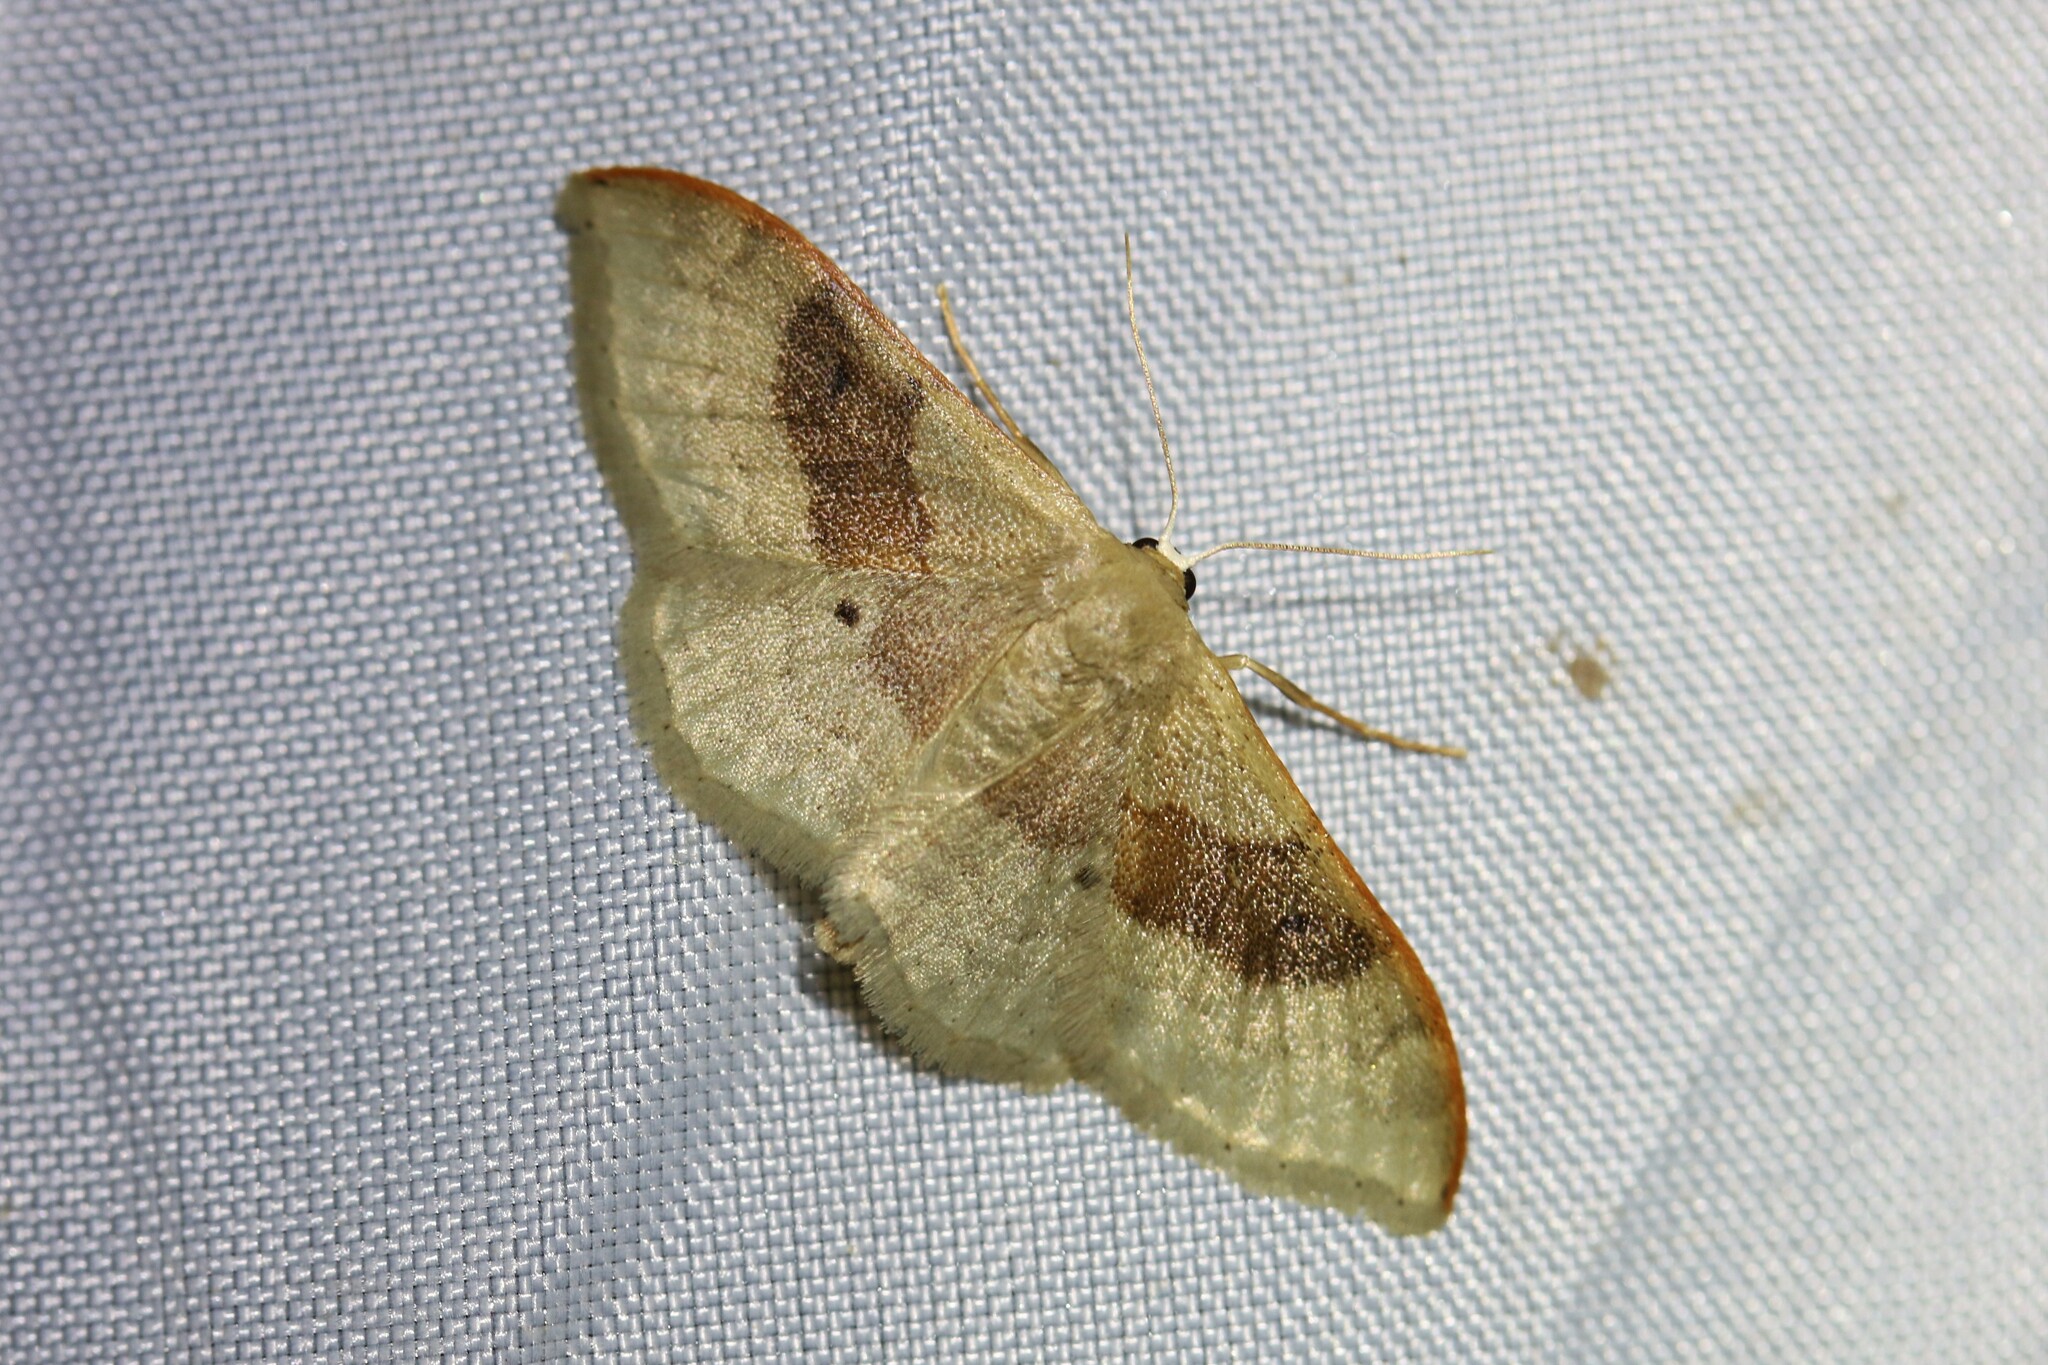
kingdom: Animalia
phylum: Arthropoda
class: Insecta
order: Lepidoptera
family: Geometridae
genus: Idaea
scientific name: Idaea degeneraria
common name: Portland ribbon wave
